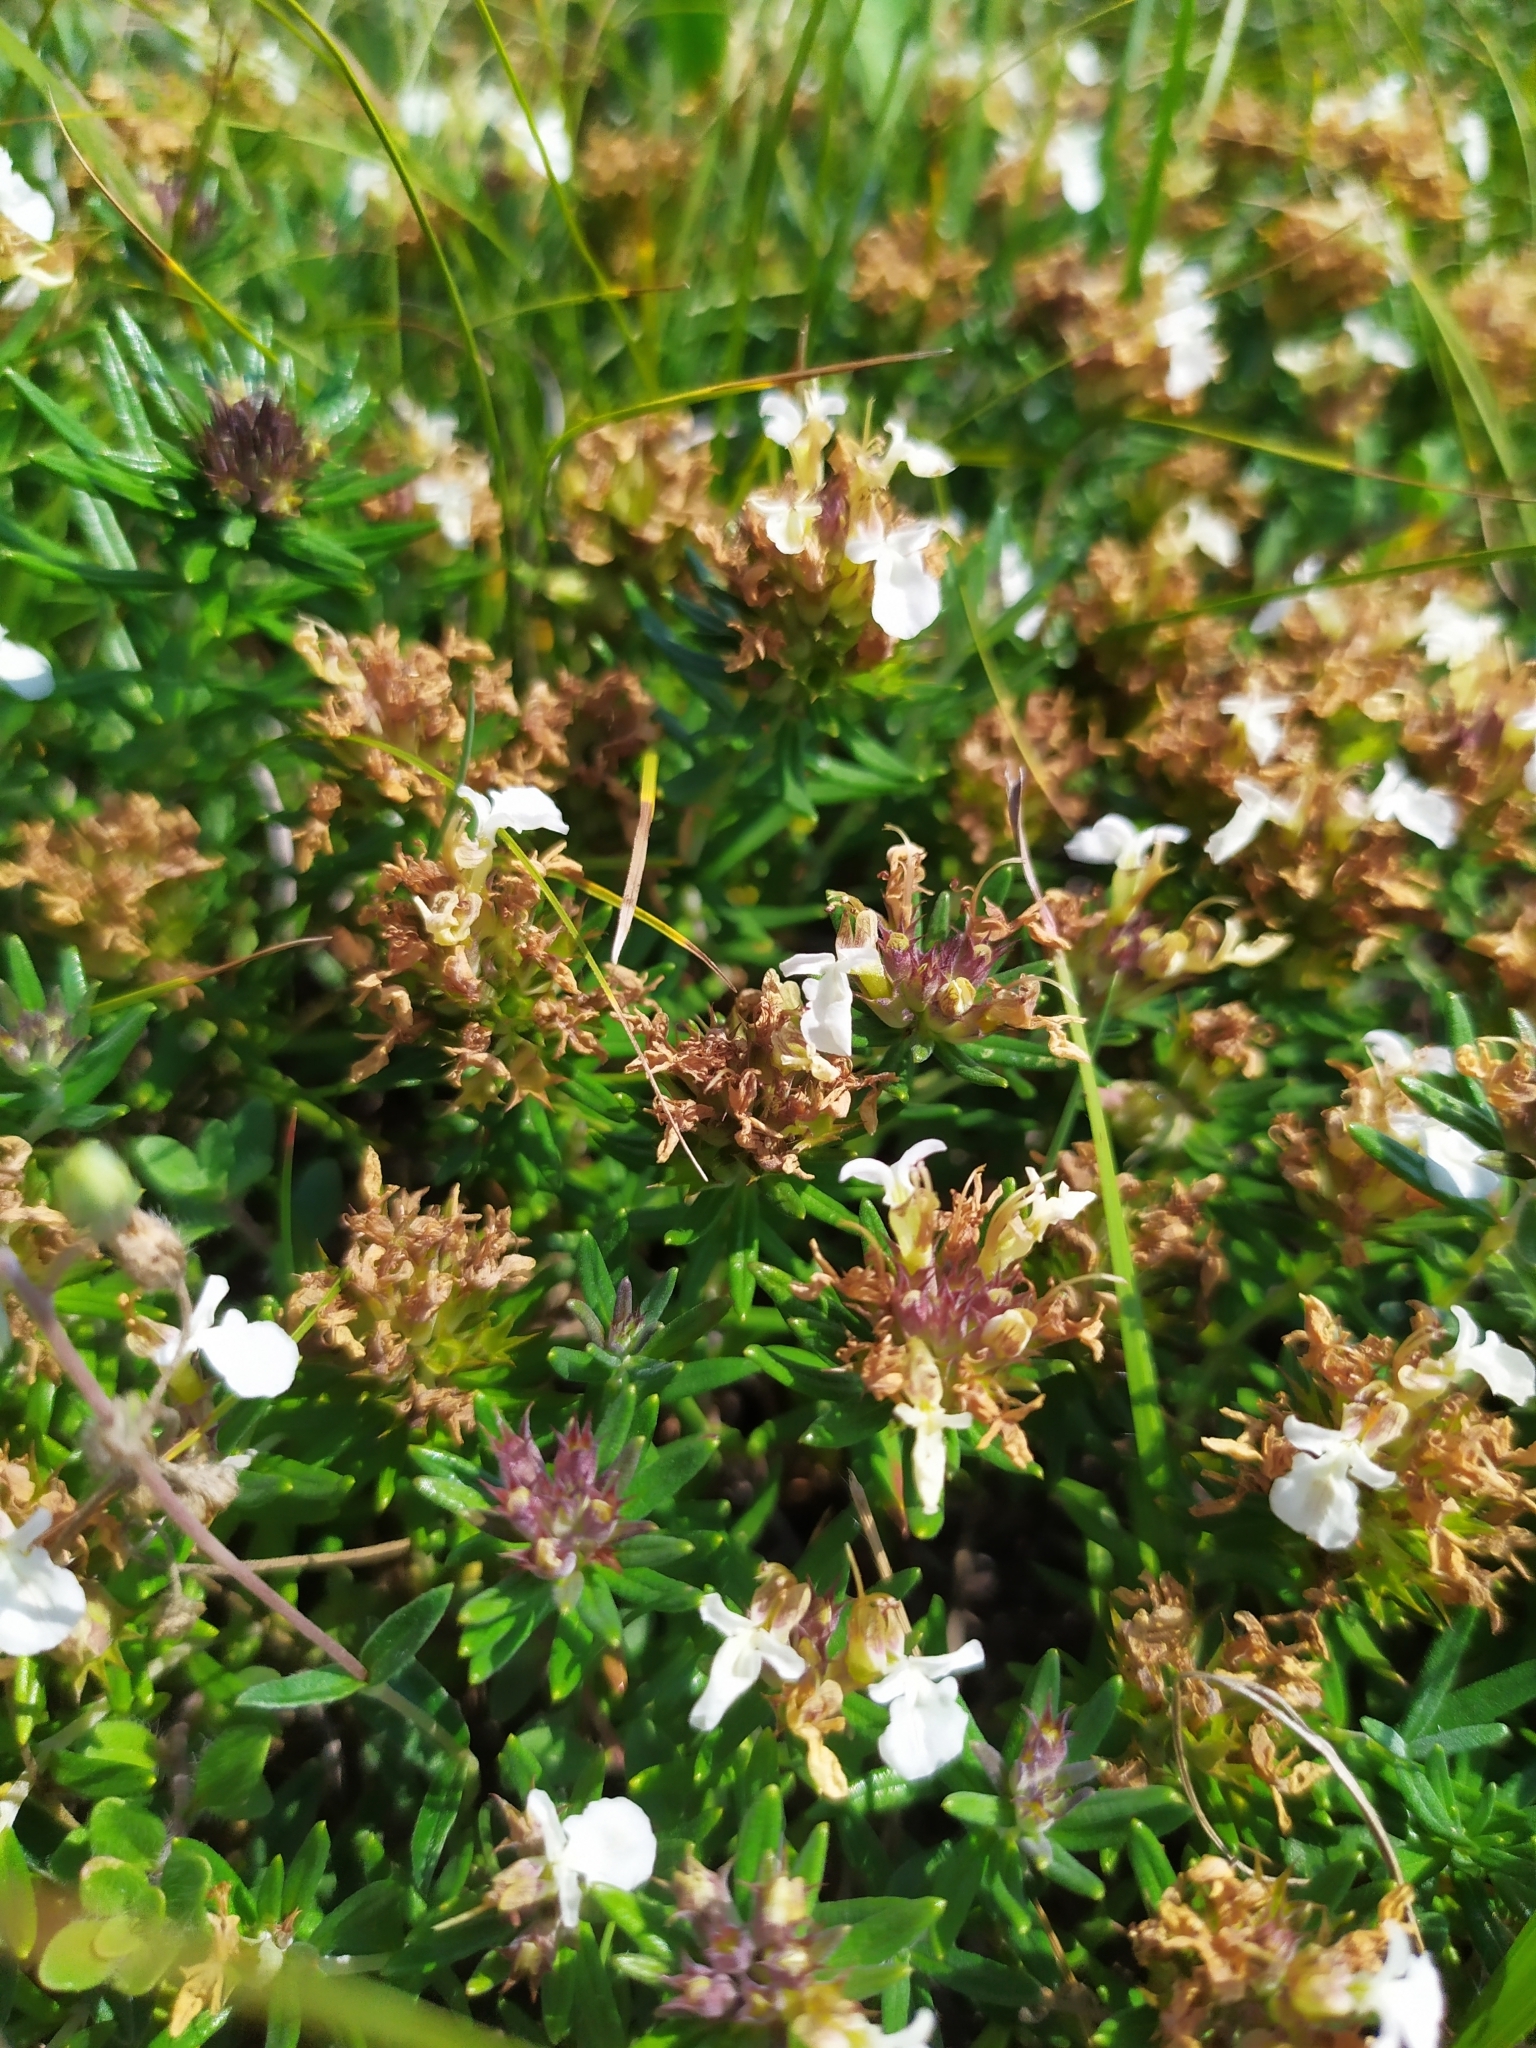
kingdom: Plantae
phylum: Tracheophyta
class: Magnoliopsida
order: Lamiales
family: Lamiaceae
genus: Teucrium
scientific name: Teucrium montanum
